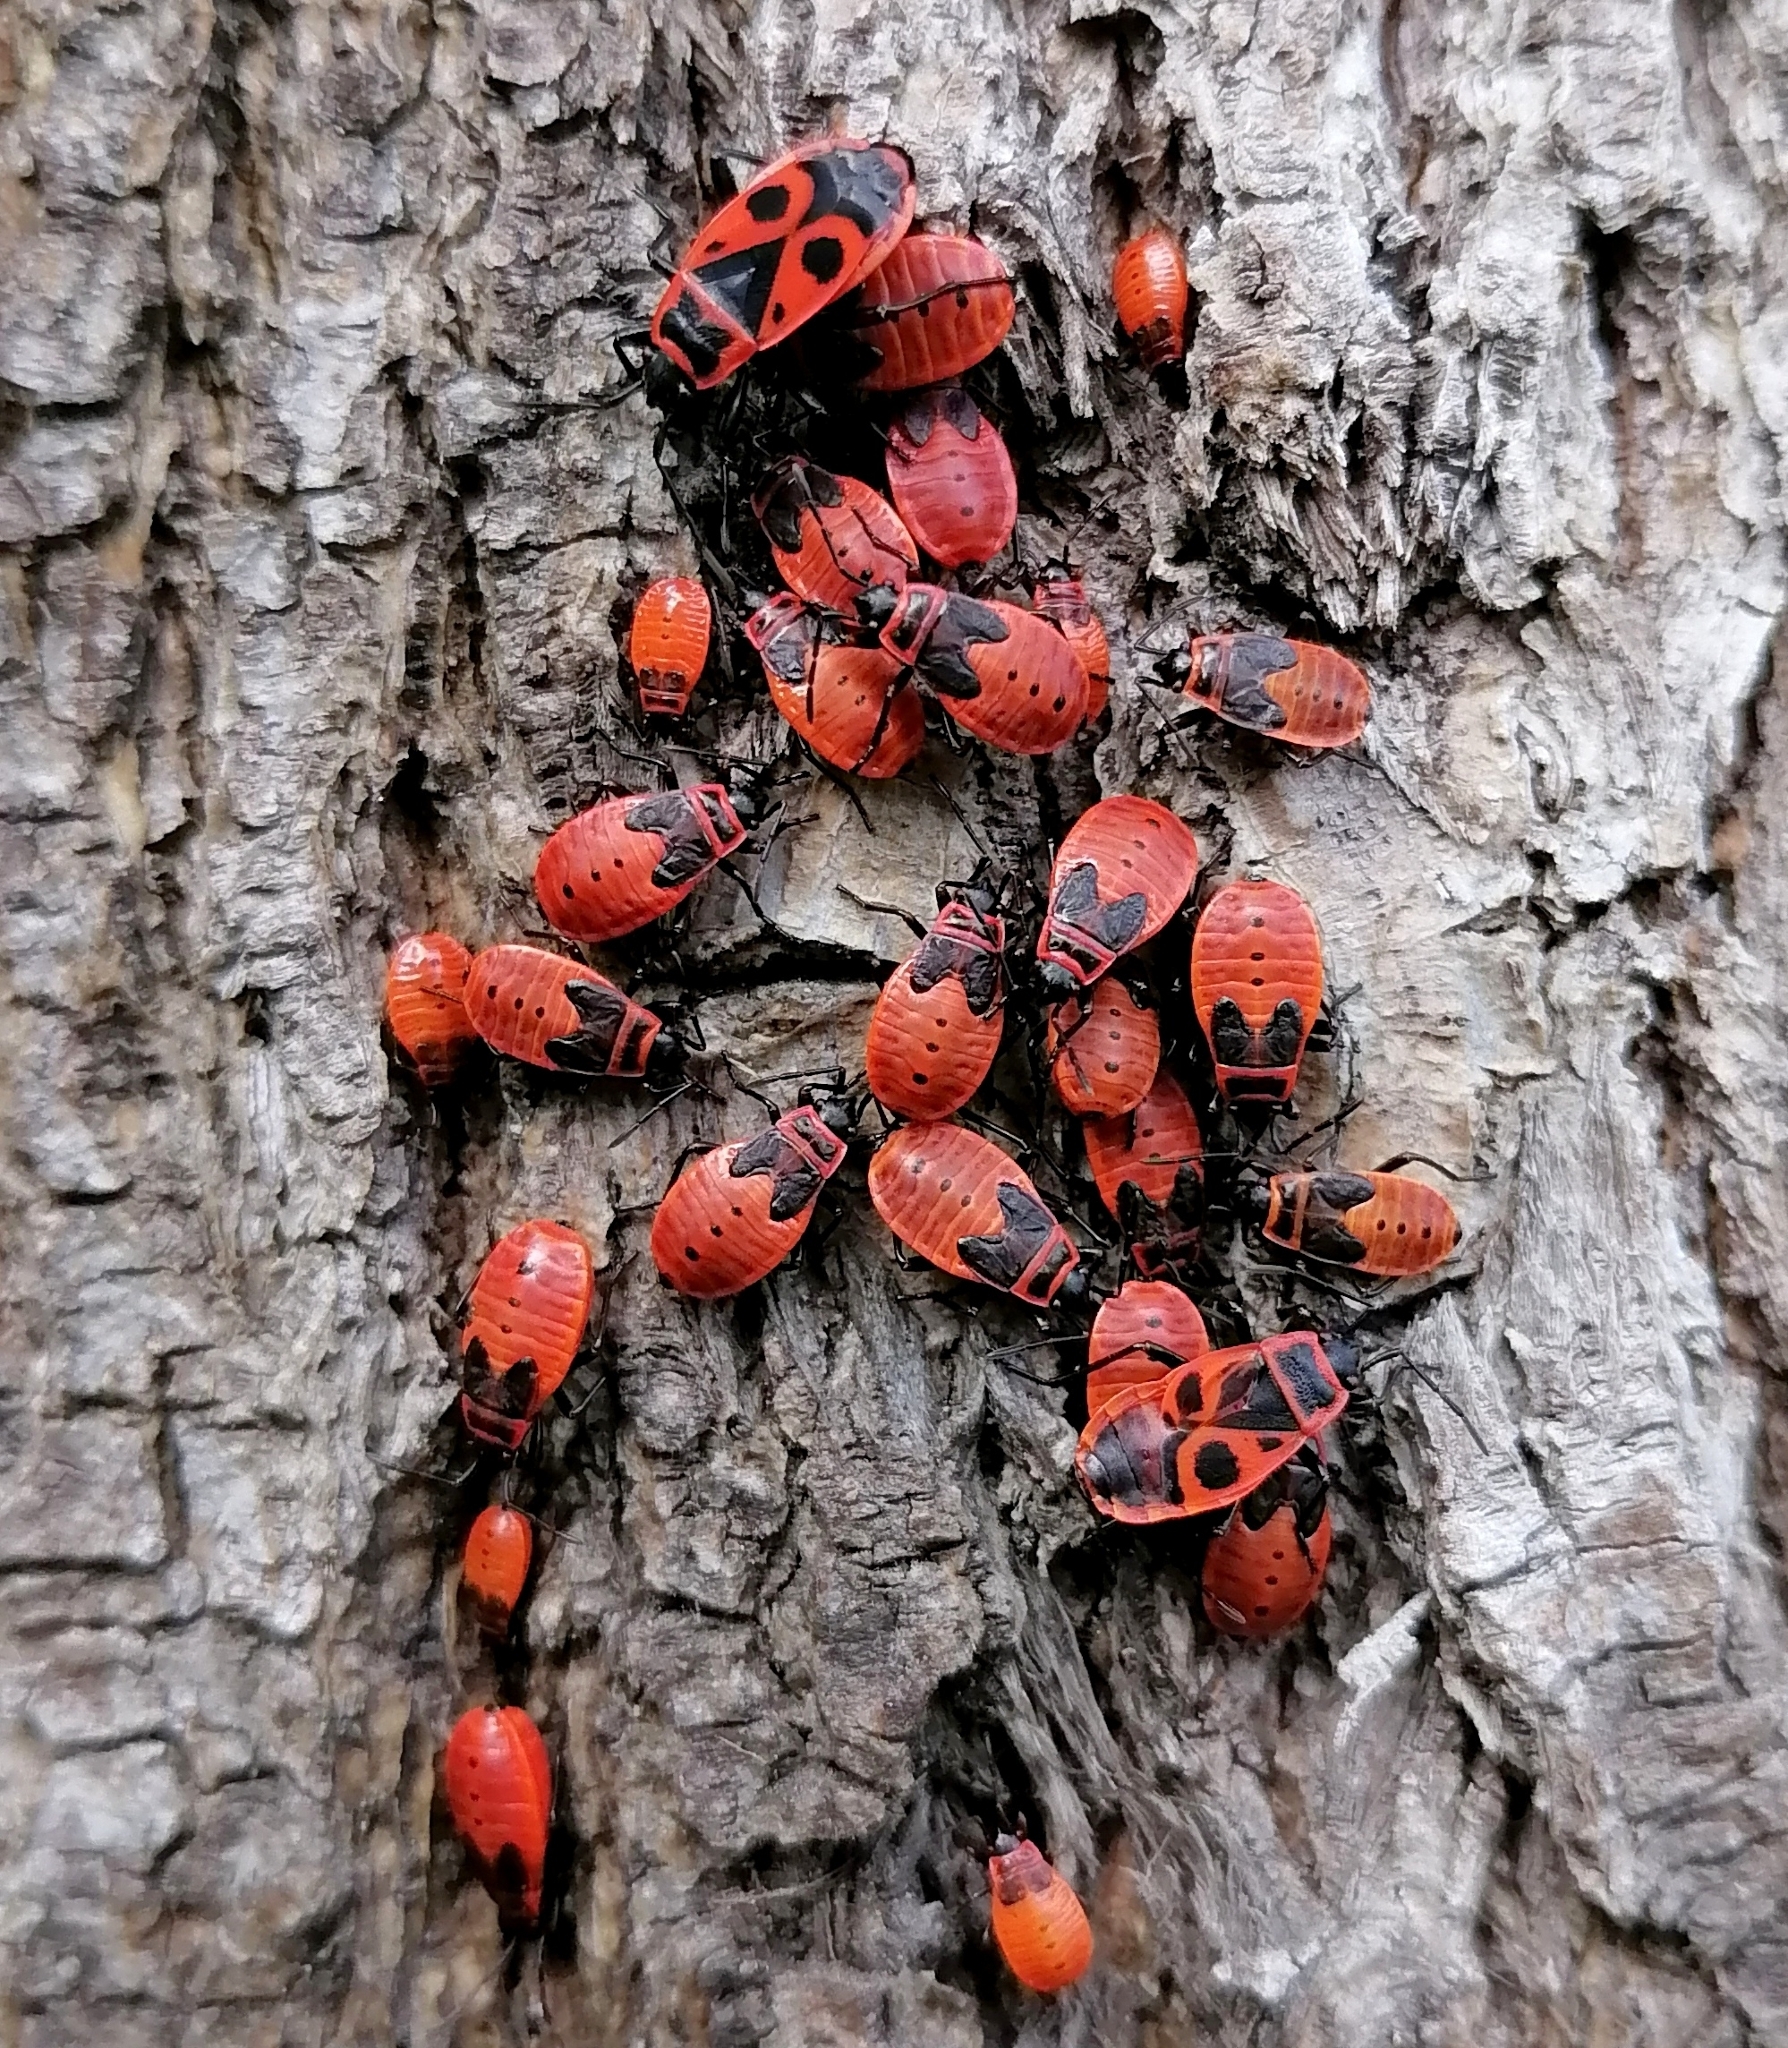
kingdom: Animalia
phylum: Arthropoda
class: Insecta
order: Hemiptera
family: Pyrrhocoridae
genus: Pyrrhocoris
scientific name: Pyrrhocoris apterus
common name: Firebug
